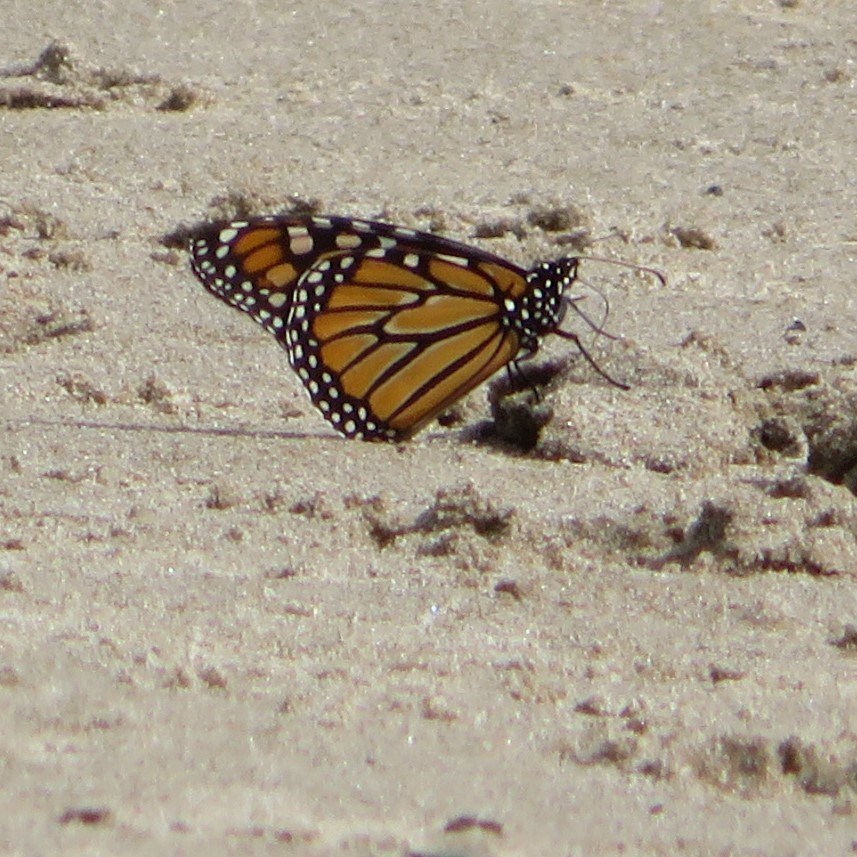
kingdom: Animalia
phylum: Arthropoda
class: Insecta
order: Lepidoptera
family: Nymphalidae
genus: Danaus
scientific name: Danaus plexippus
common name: Monarch
